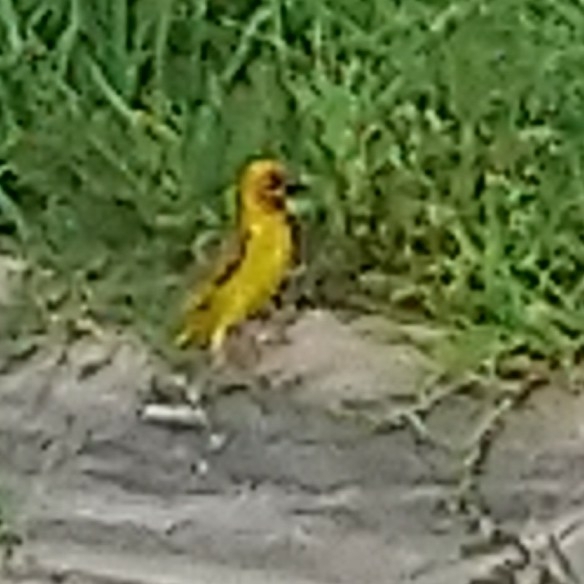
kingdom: Animalia
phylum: Chordata
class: Aves
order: Passeriformes
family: Ploceidae
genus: Ploceus
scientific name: Ploceus capensis
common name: Cape weaver
